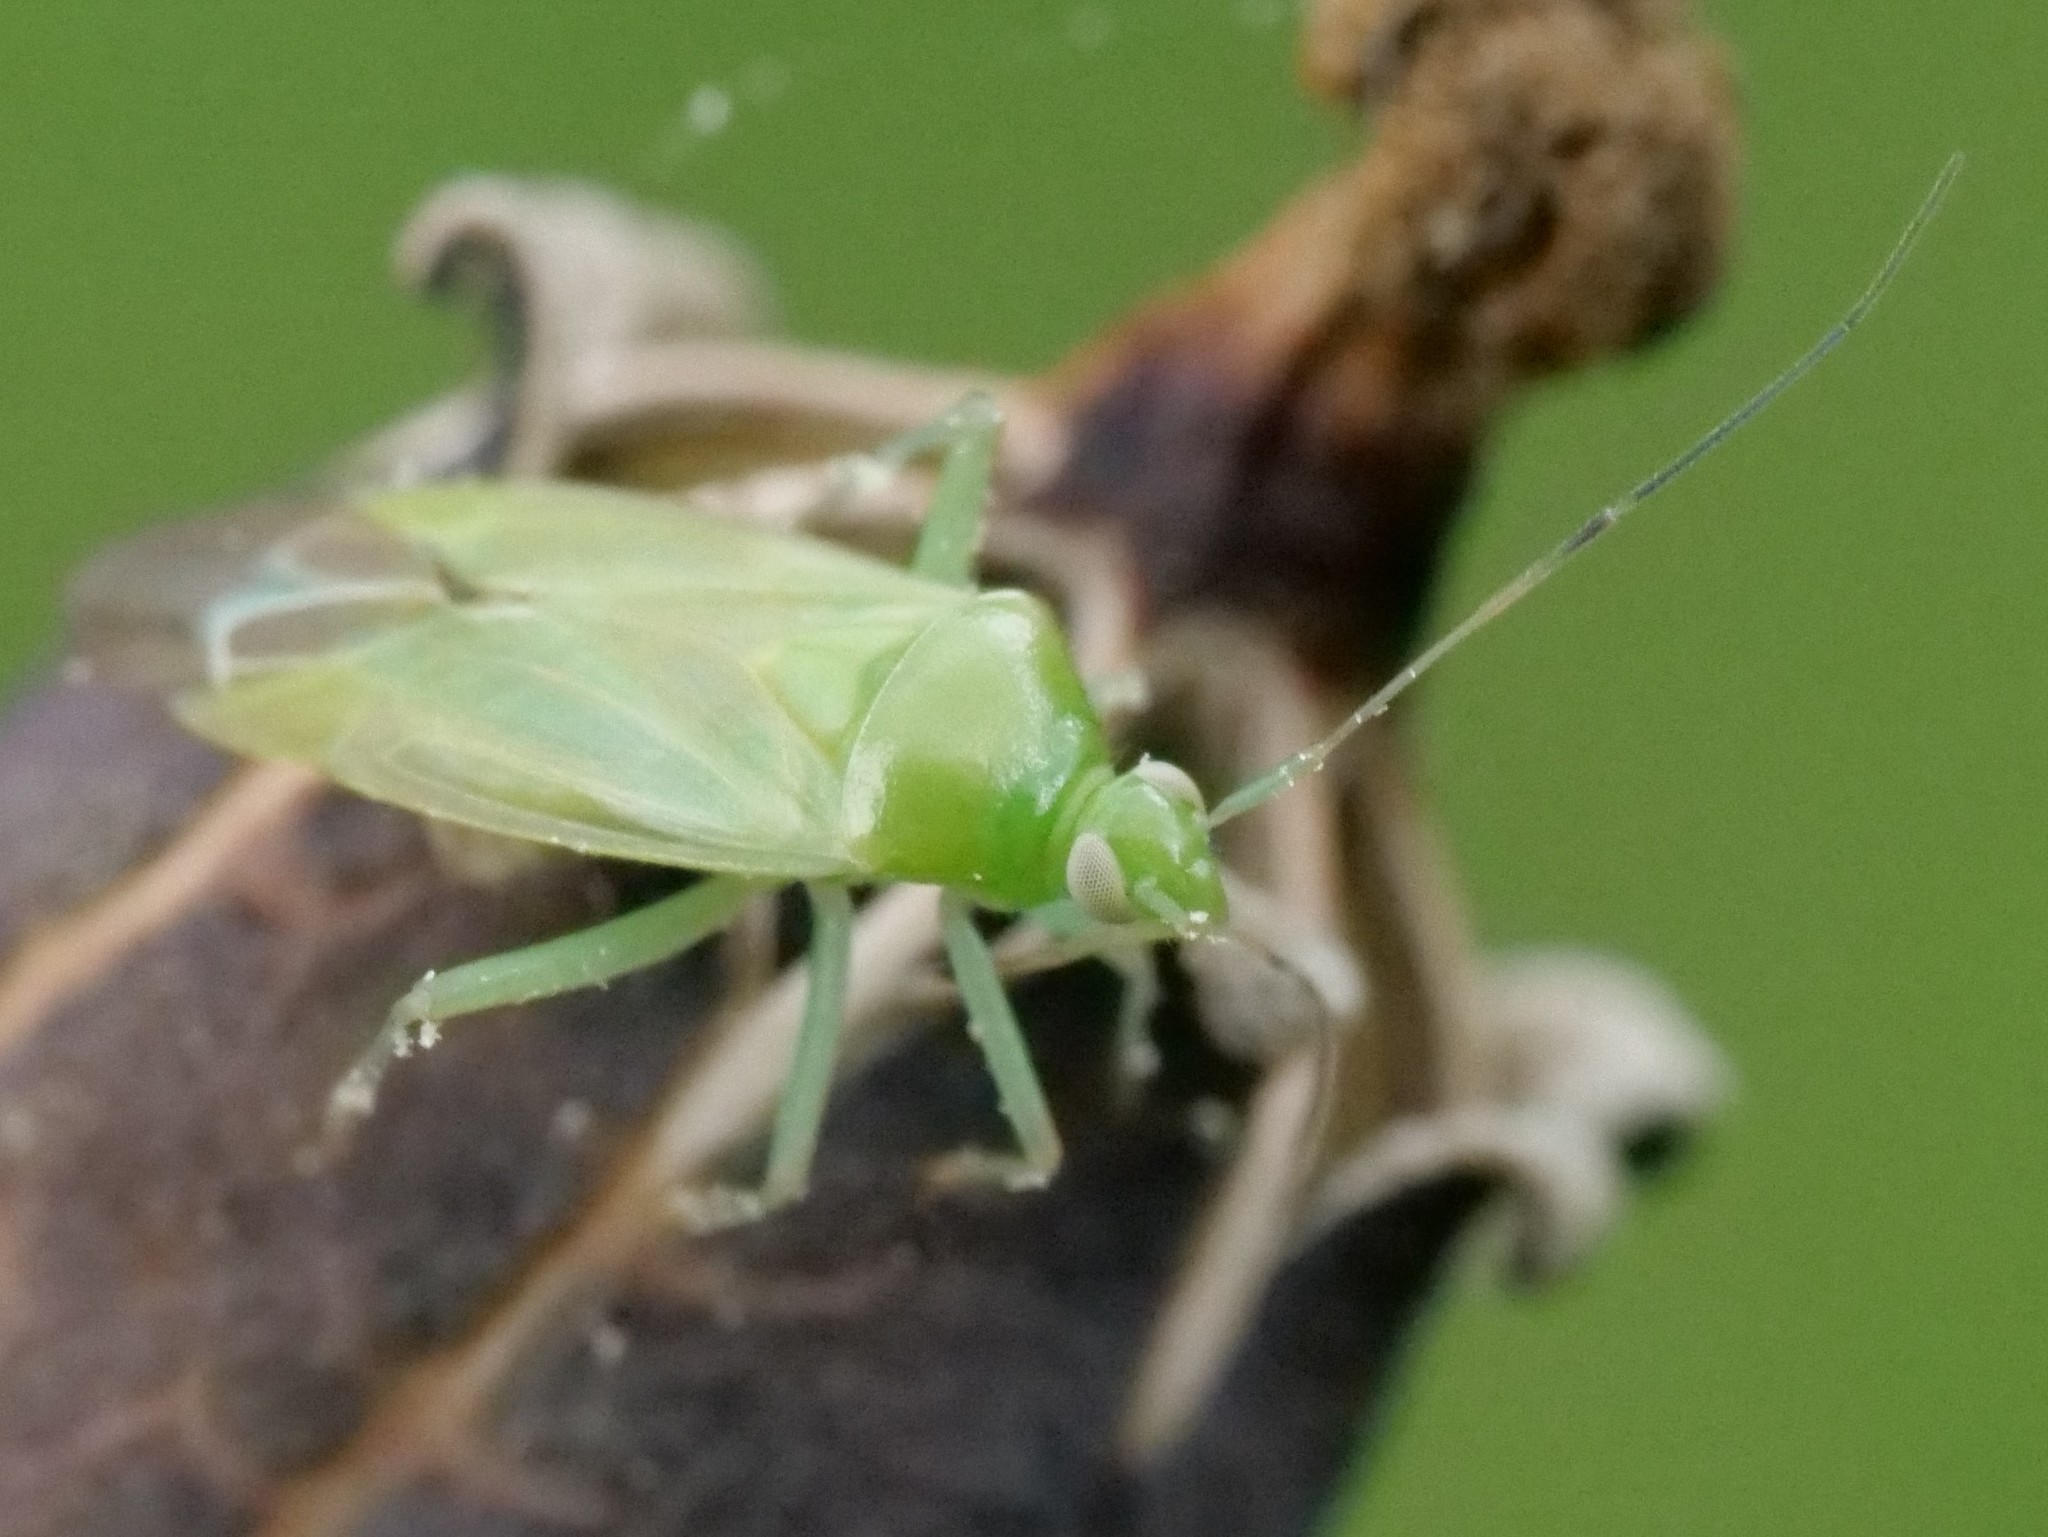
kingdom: Animalia
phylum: Arthropoda
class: Insecta
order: Hemiptera
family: Miridae
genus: Lygocoris
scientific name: Lygocoris pabulinus
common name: Common green capsid
